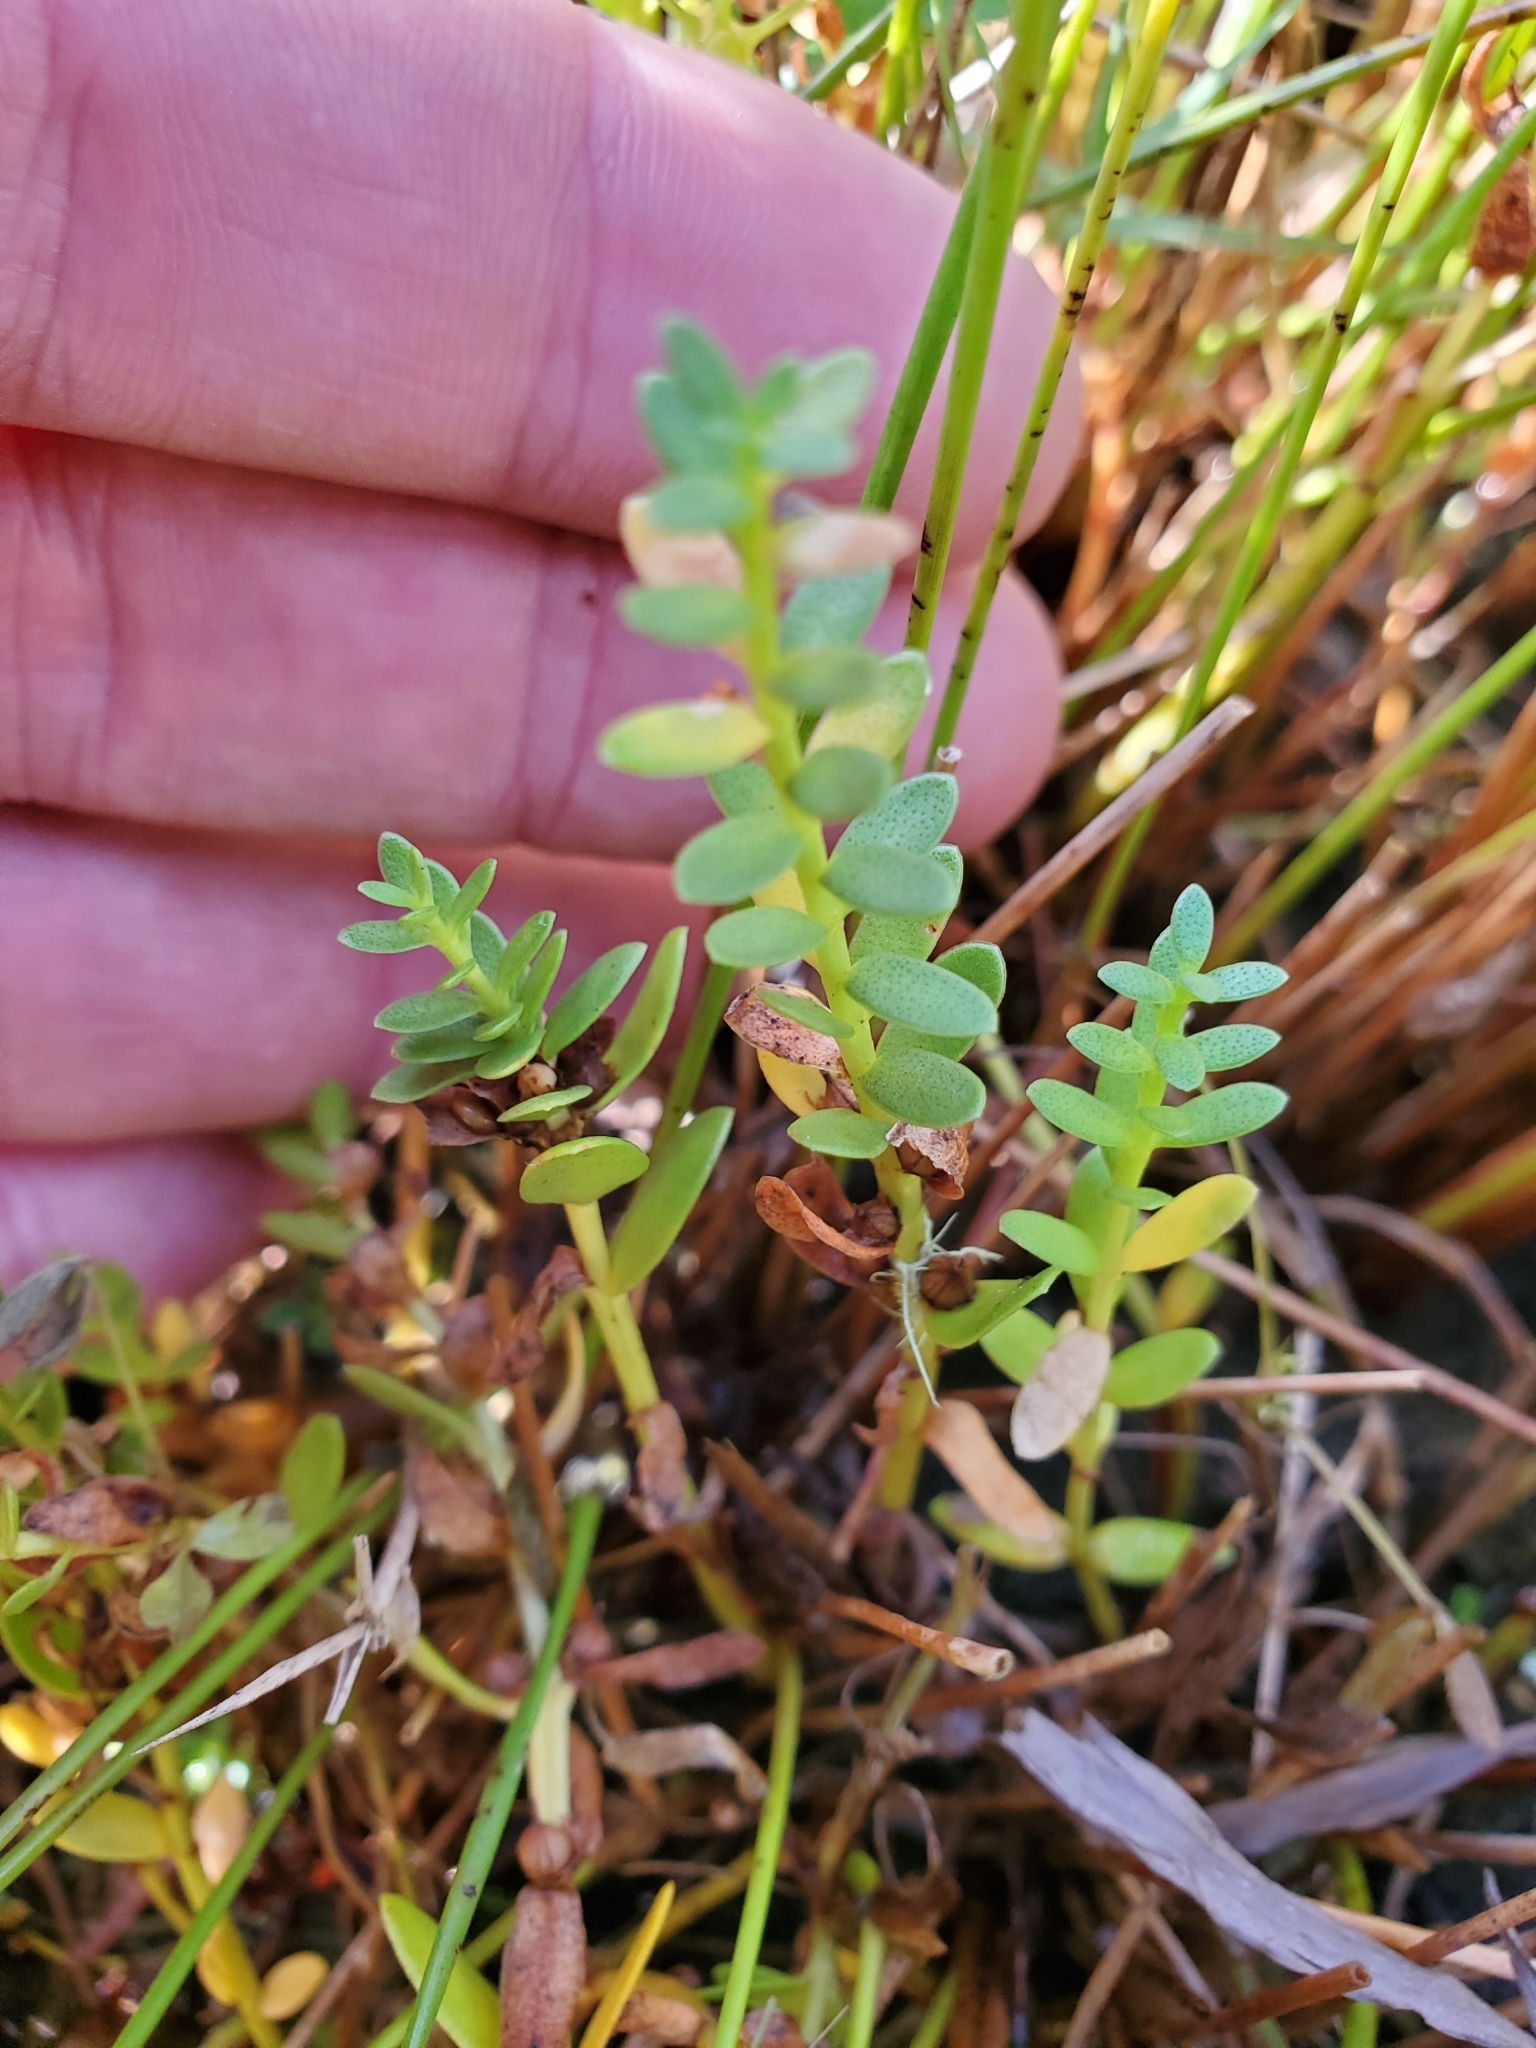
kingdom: Plantae
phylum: Tracheophyta
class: Magnoliopsida
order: Ericales
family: Primulaceae
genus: Lysimachia
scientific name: Lysimachia maritima
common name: Sea milkwort
